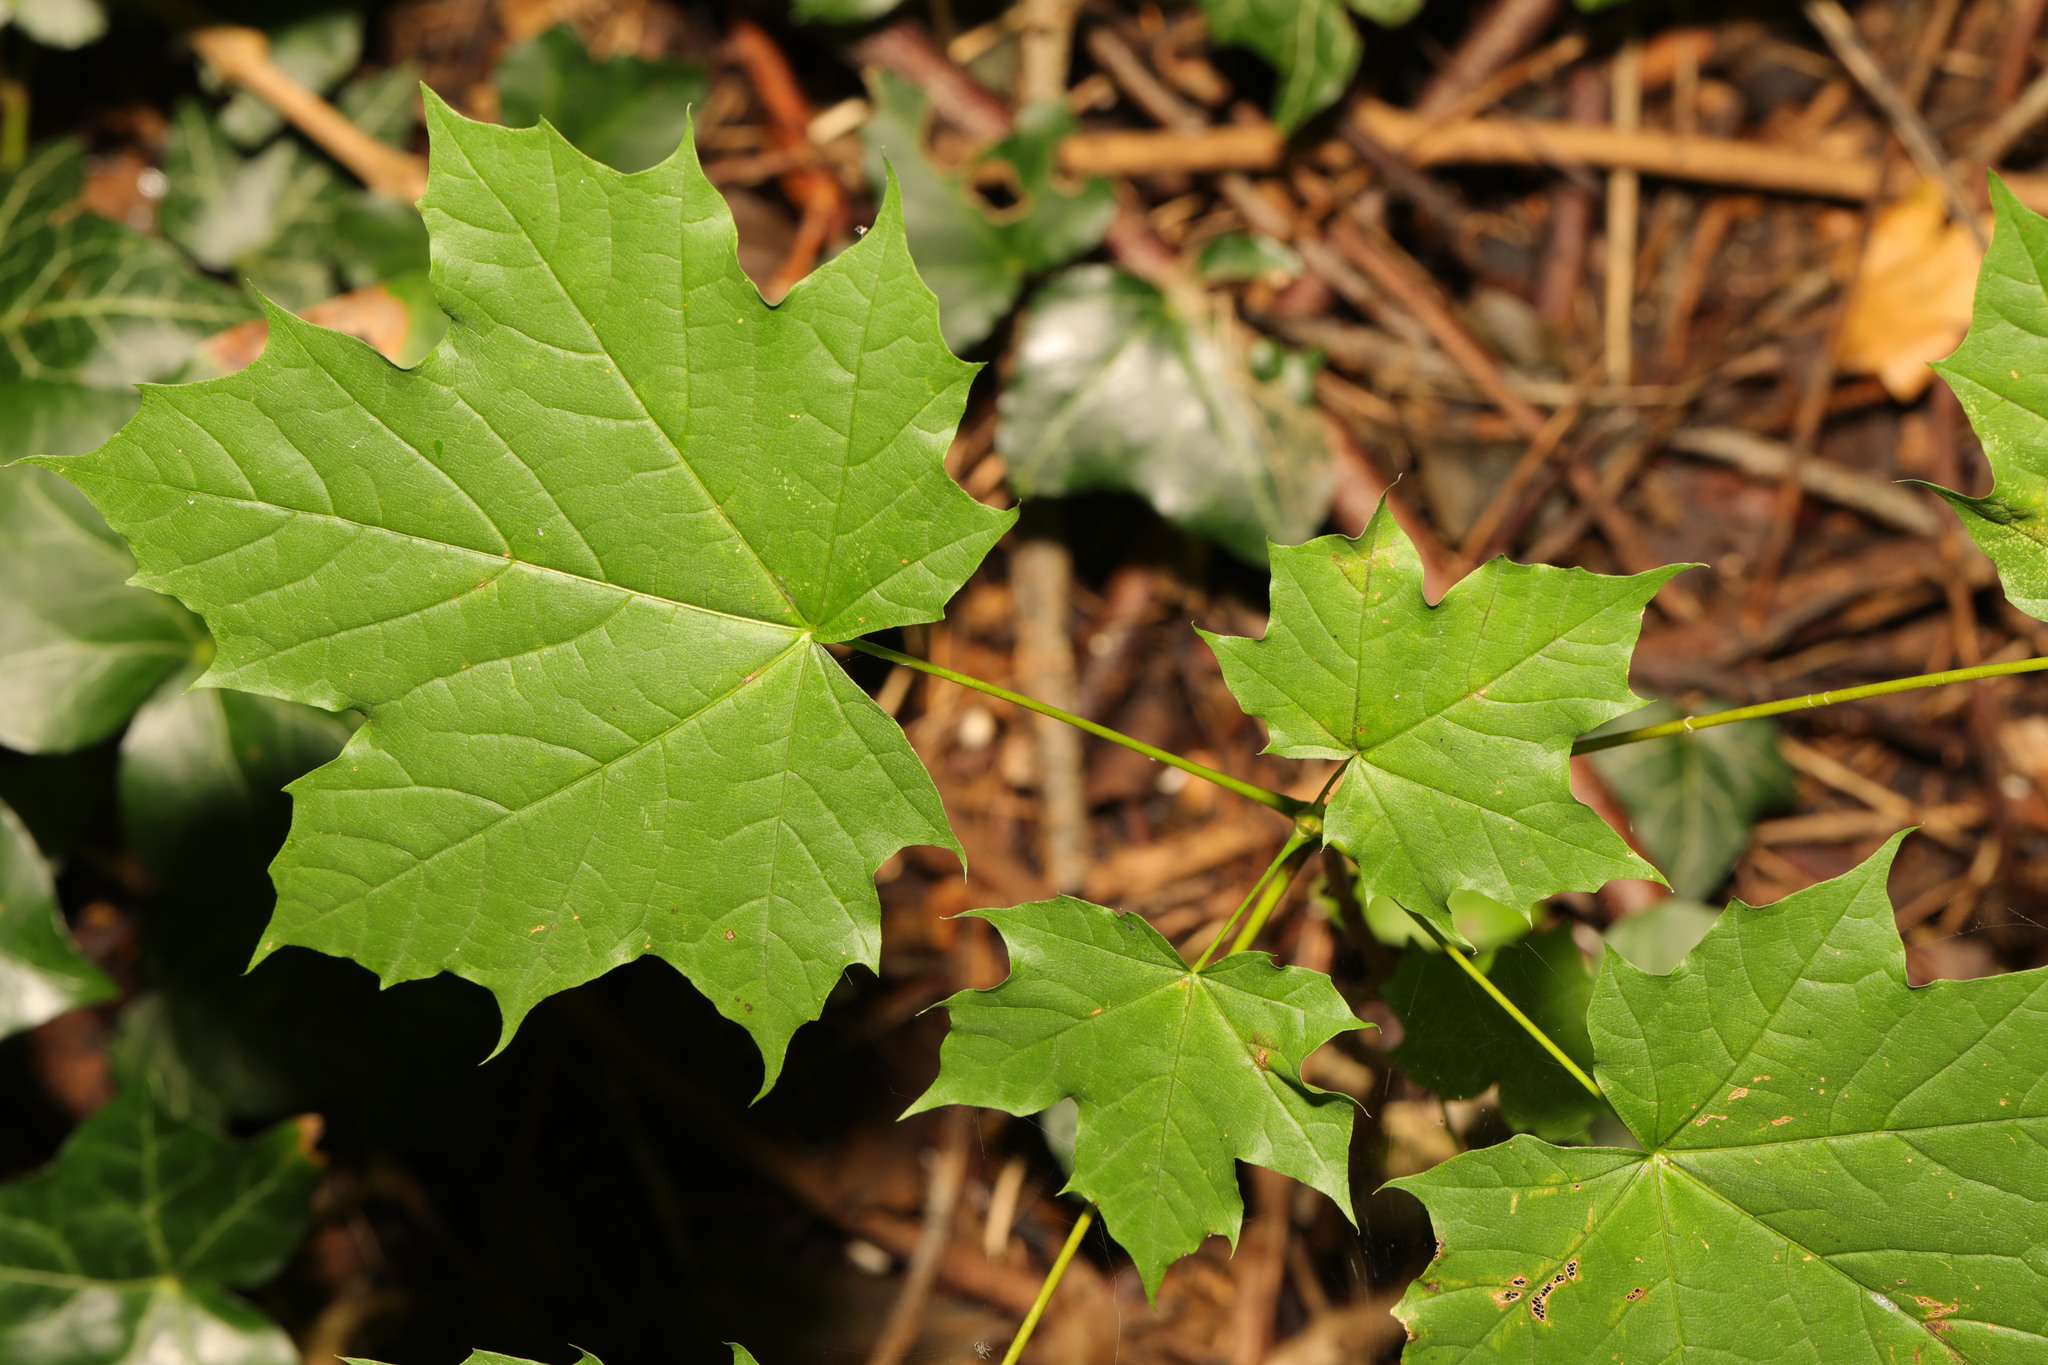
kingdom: Plantae
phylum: Tracheophyta
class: Magnoliopsida
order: Sapindales
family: Sapindaceae
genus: Acer
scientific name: Acer platanoides
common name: Norway maple
